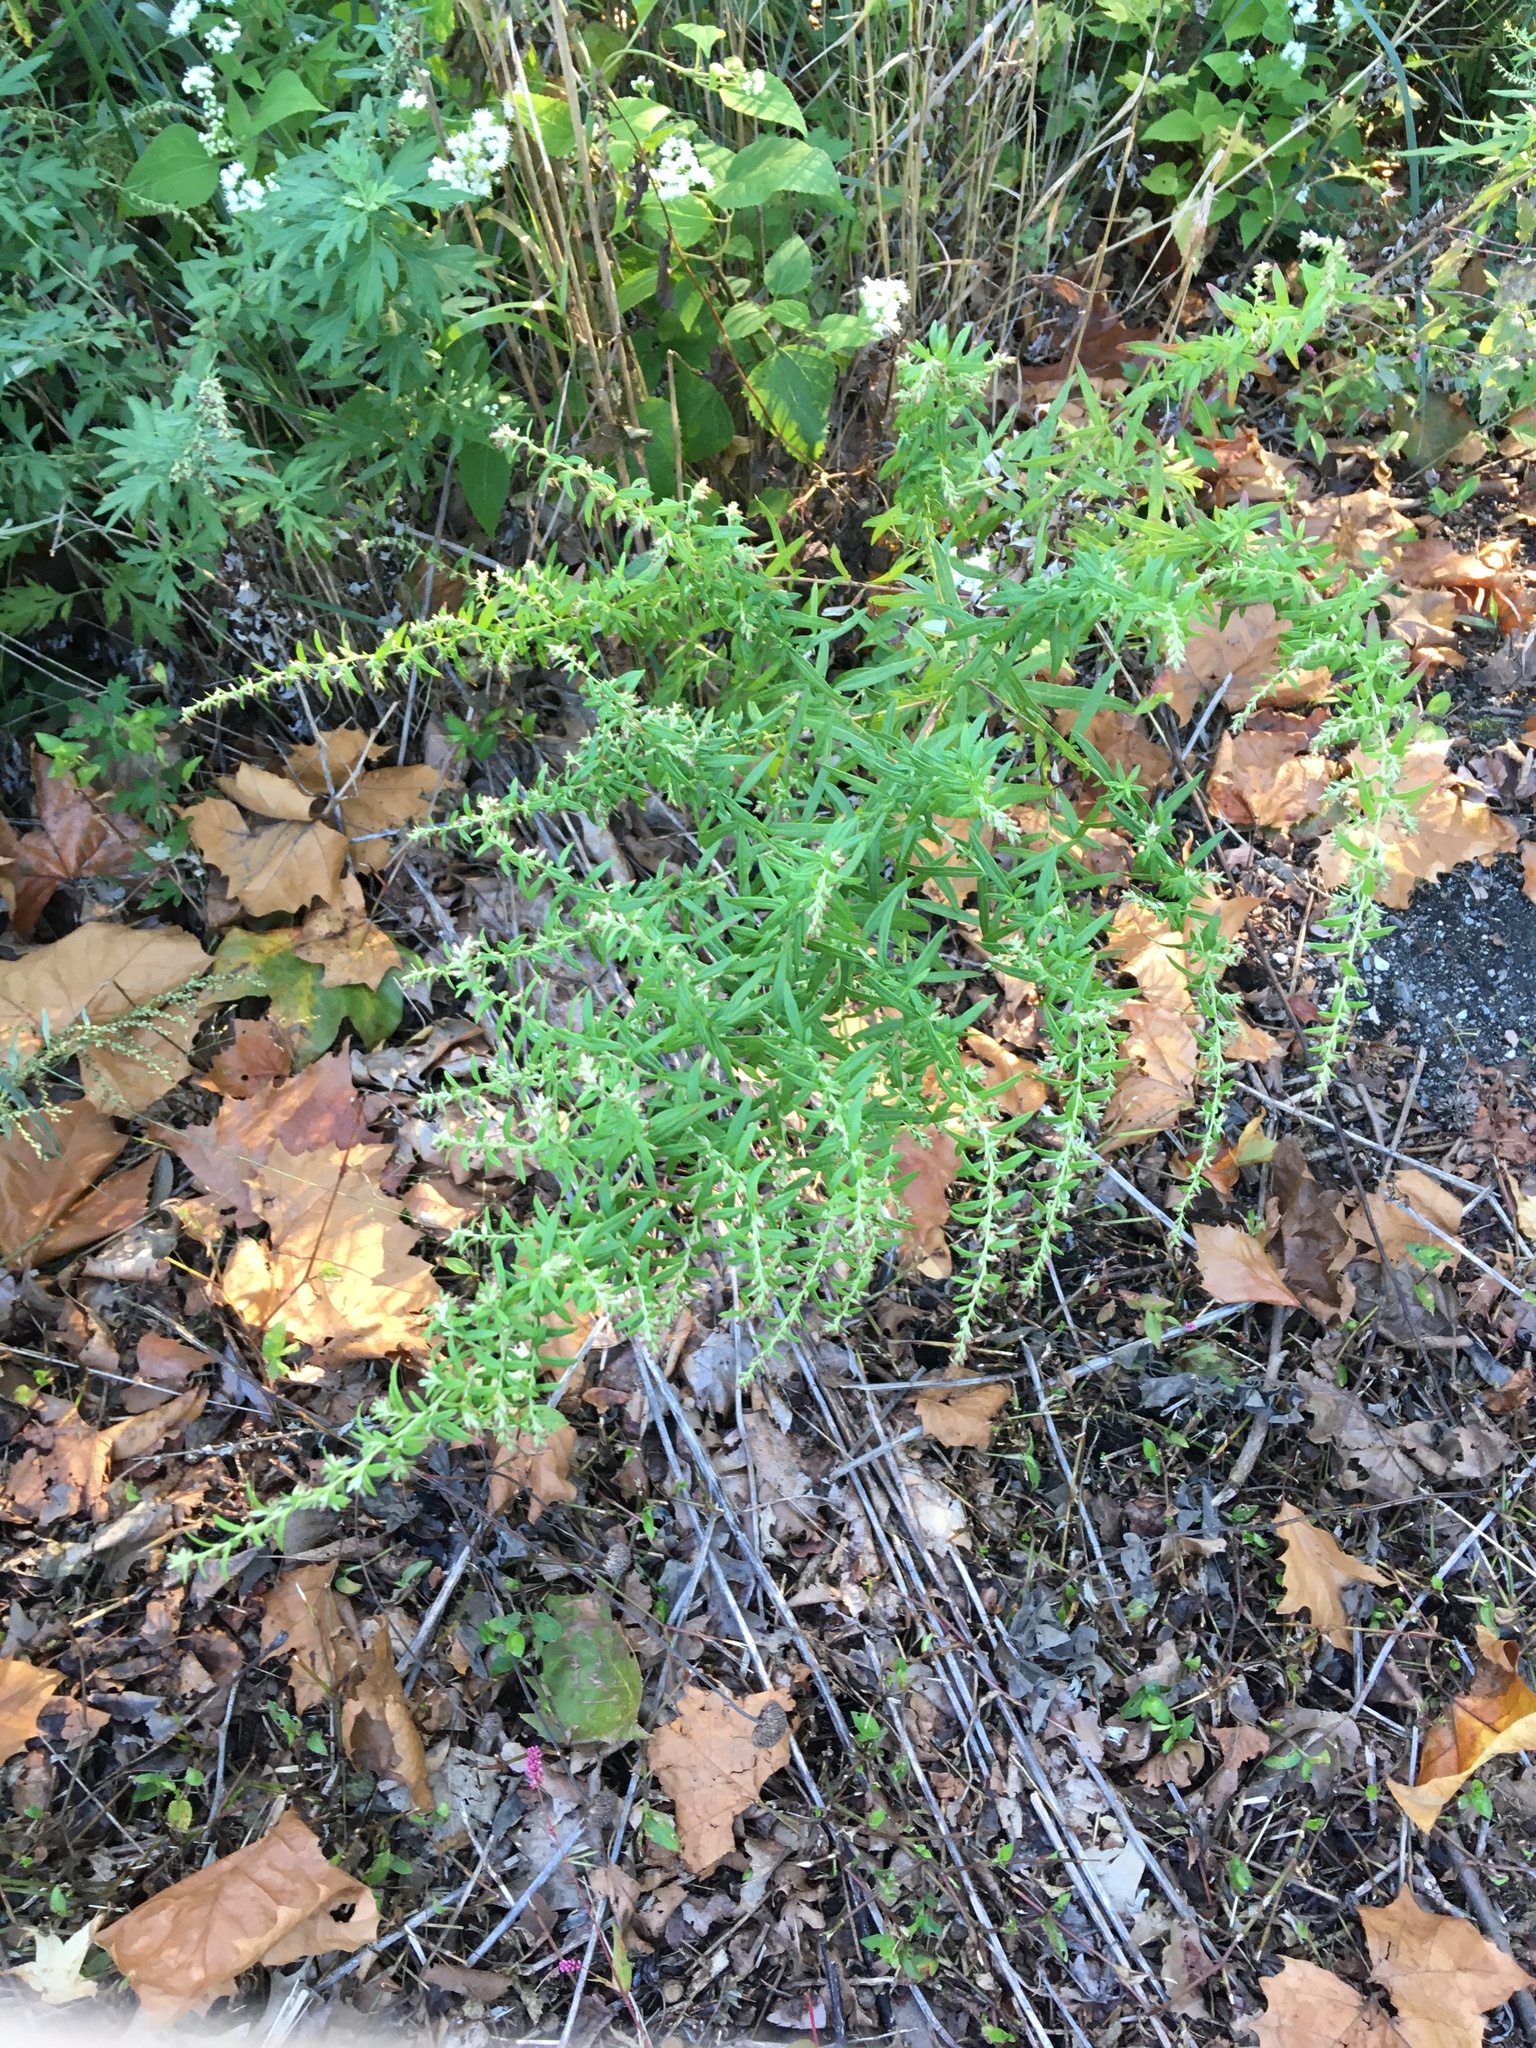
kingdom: Plantae
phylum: Tracheophyta
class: Magnoliopsida
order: Asterales
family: Asteraceae
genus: Artemisia
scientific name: Artemisia vulgaris
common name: Mugwort
